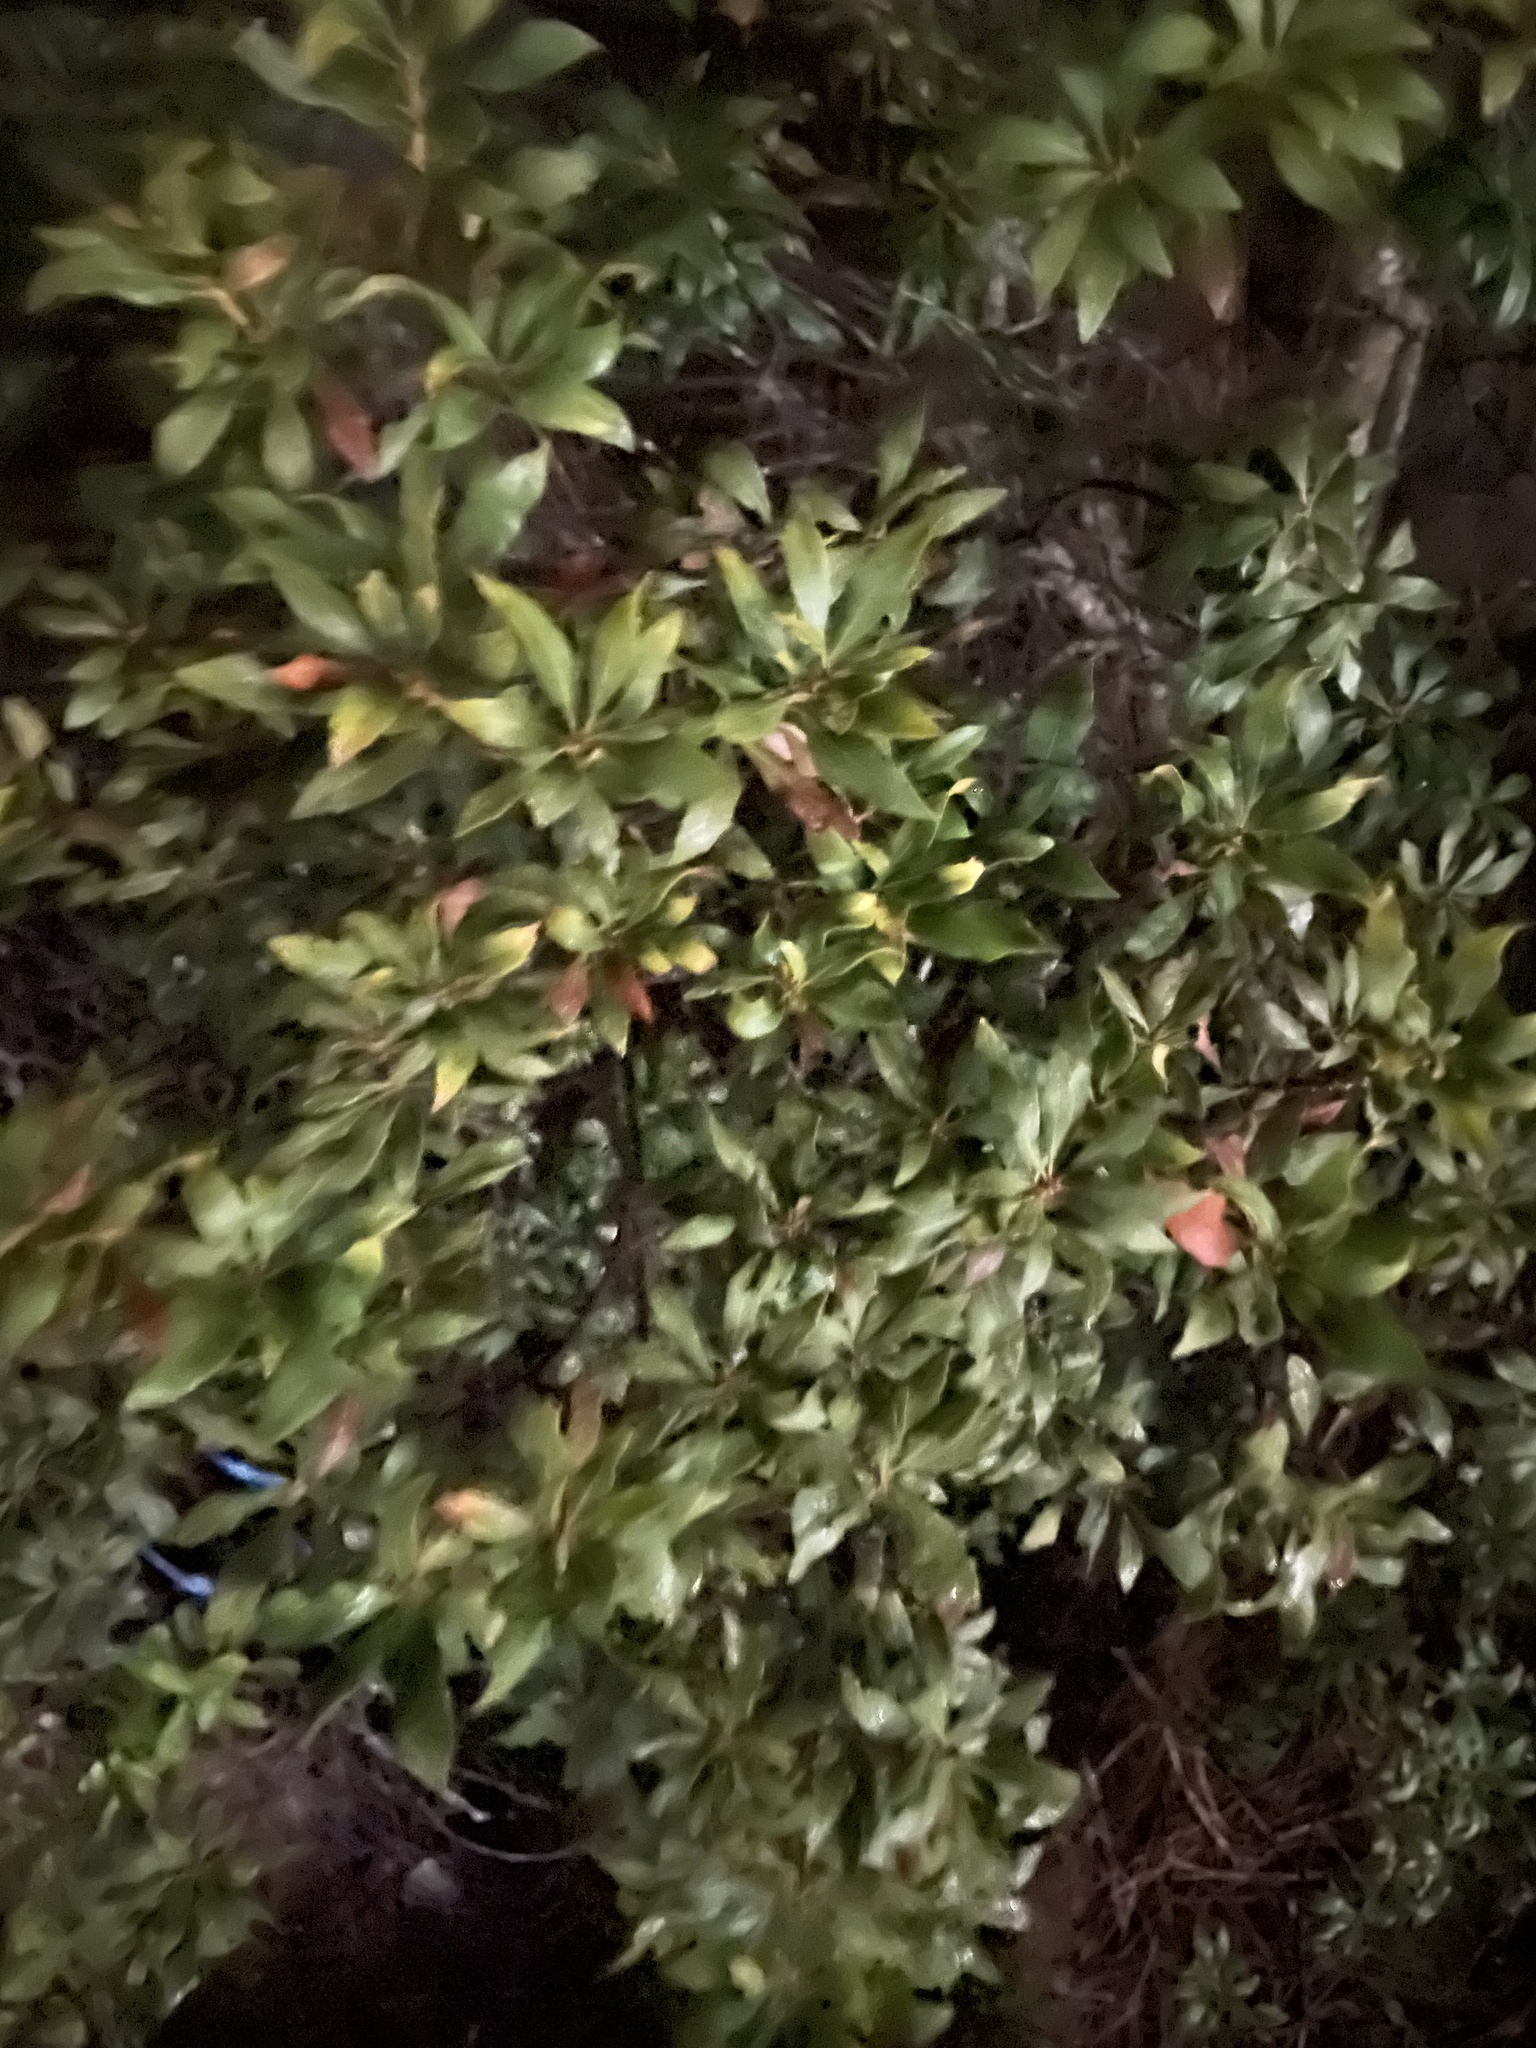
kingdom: Plantae
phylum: Tracheophyta
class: Magnoliopsida
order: Fagales
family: Myricaceae
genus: Morella
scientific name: Morella cerifera
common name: Wax myrtle
